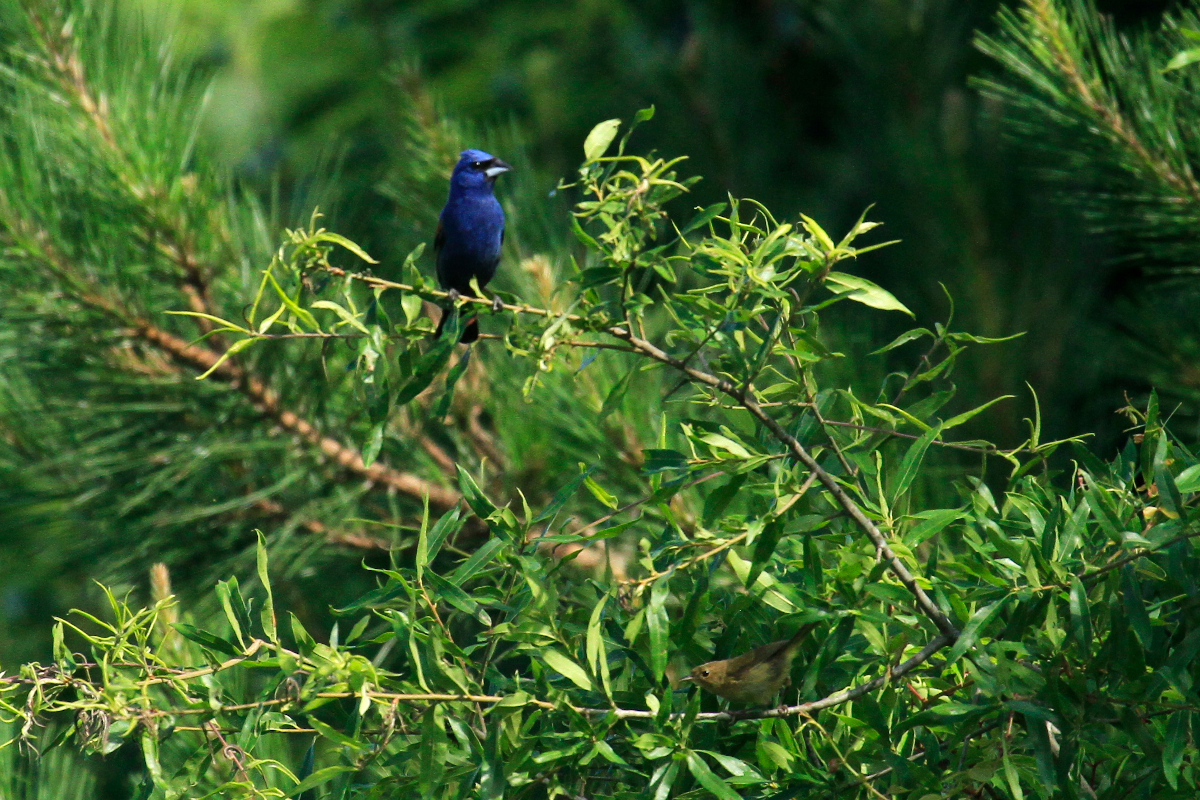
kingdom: Animalia
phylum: Chordata
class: Aves
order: Passeriformes
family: Cardinalidae
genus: Passerina
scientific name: Passerina caerulea
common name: Blue grosbeak
